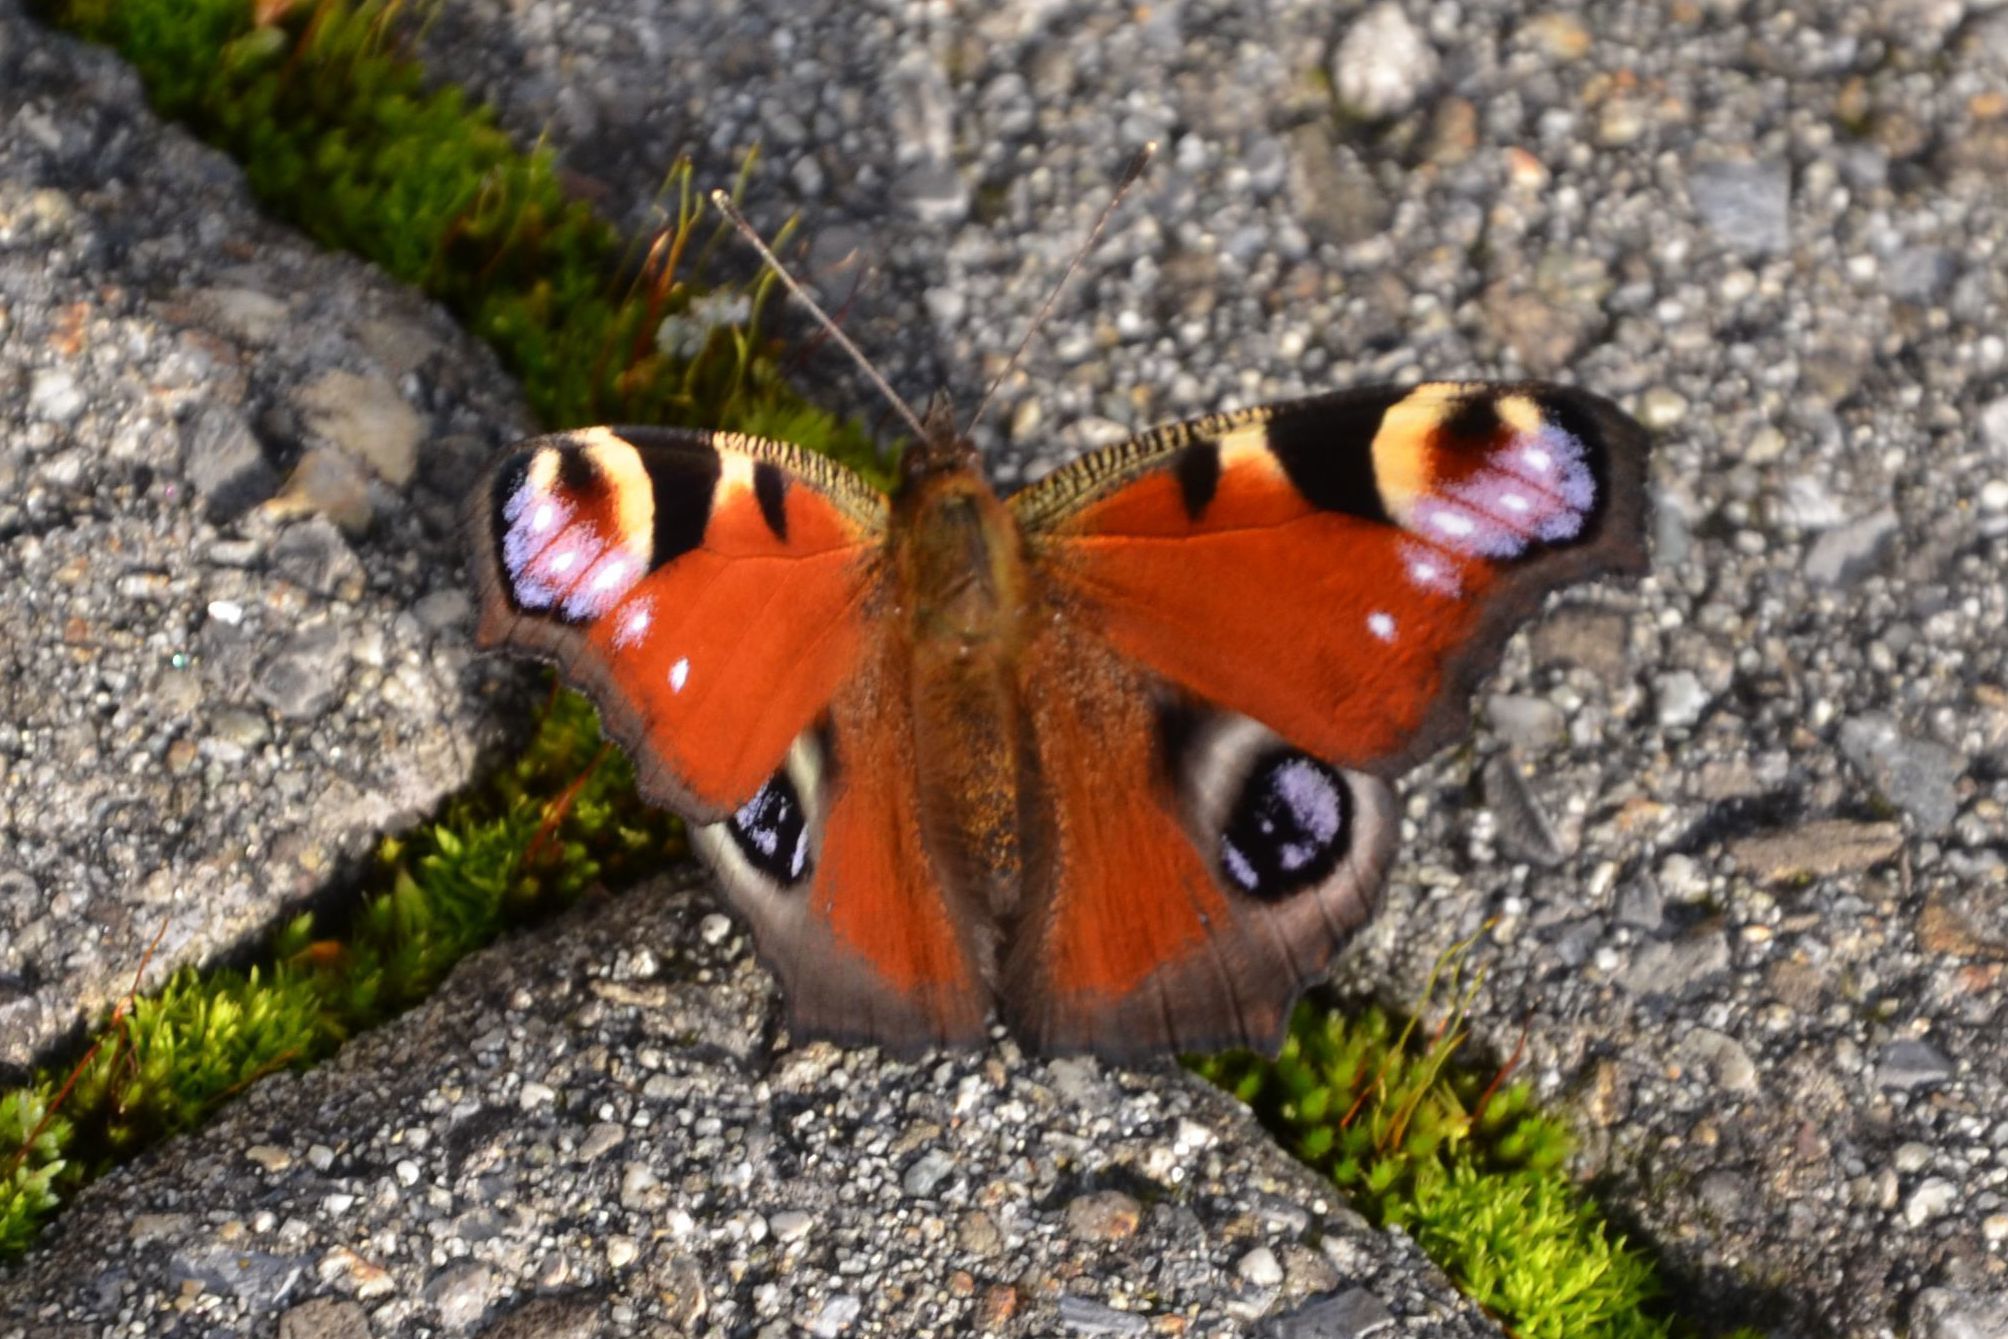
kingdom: Animalia
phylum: Arthropoda
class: Insecta
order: Lepidoptera
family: Nymphalidae
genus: Aglais
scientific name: Aglais io
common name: Peacock
